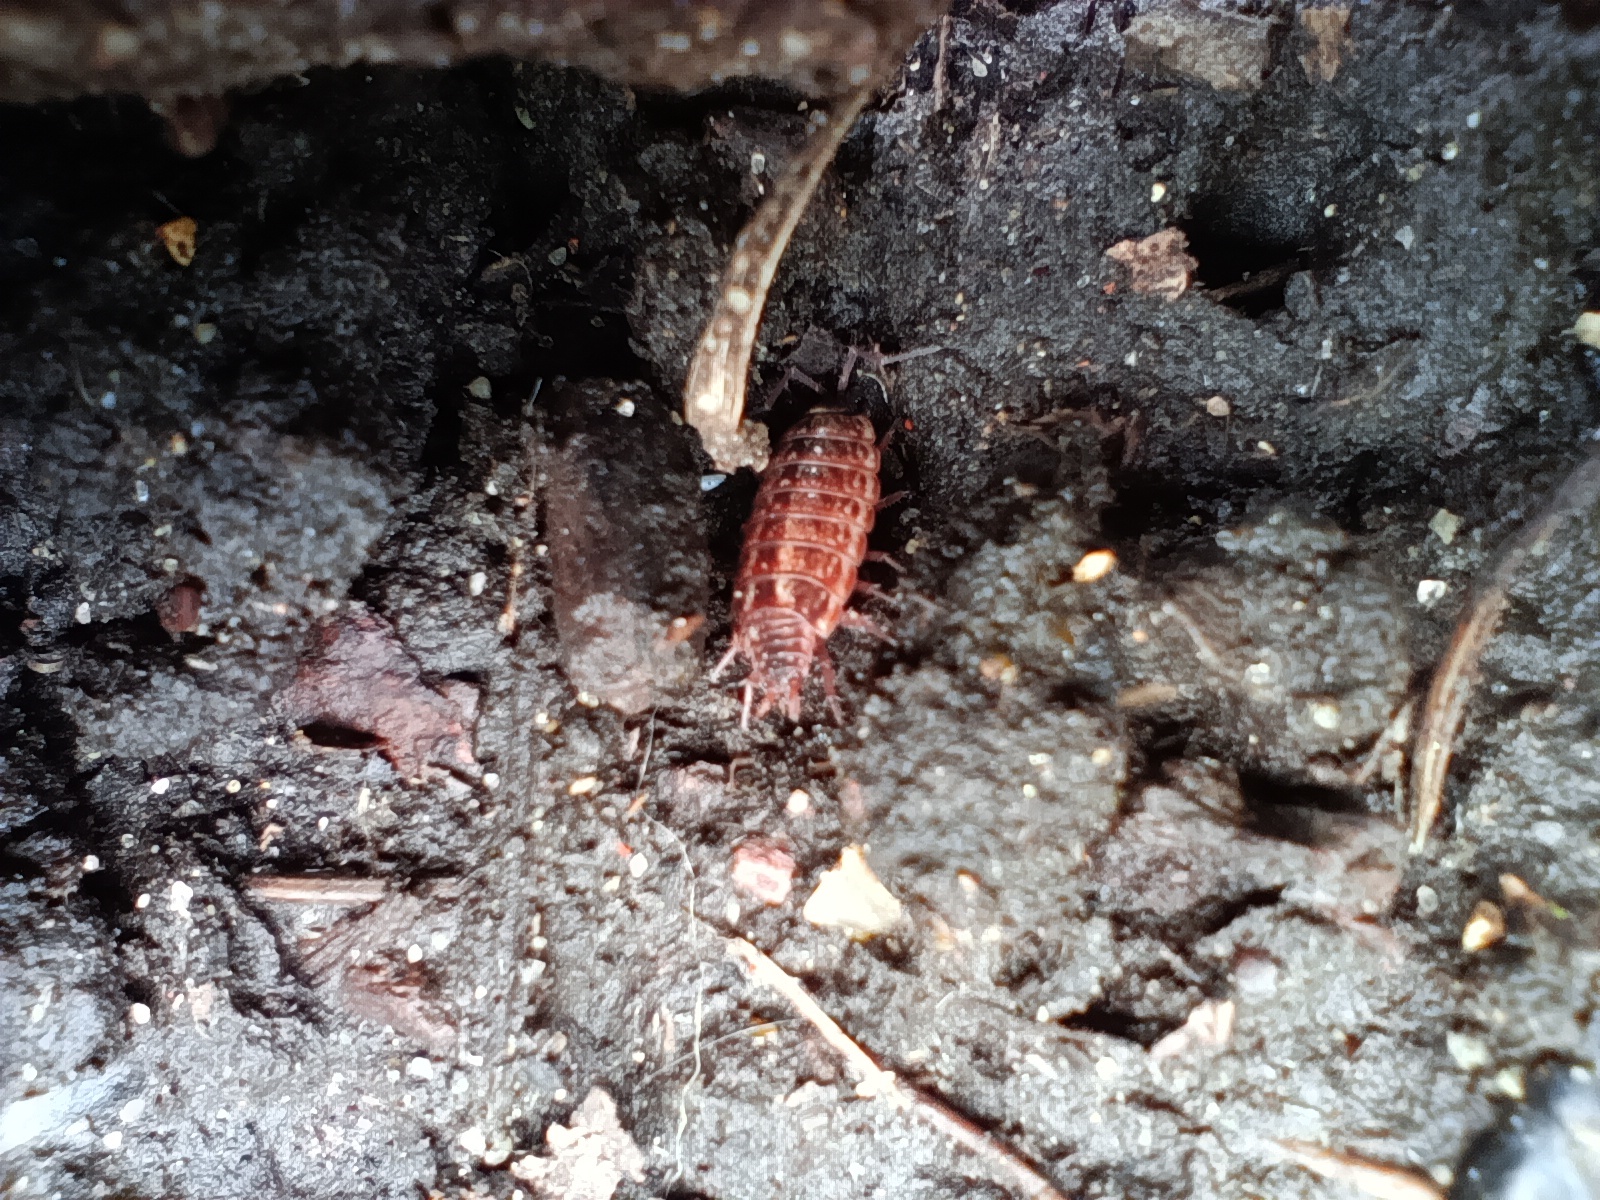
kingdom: Animalia
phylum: Arthropoda
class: Malacostraca
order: Isopoda
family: Philosciidae
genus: Philoscia
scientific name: Philoscia muscorum
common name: Common striped woodlouse
